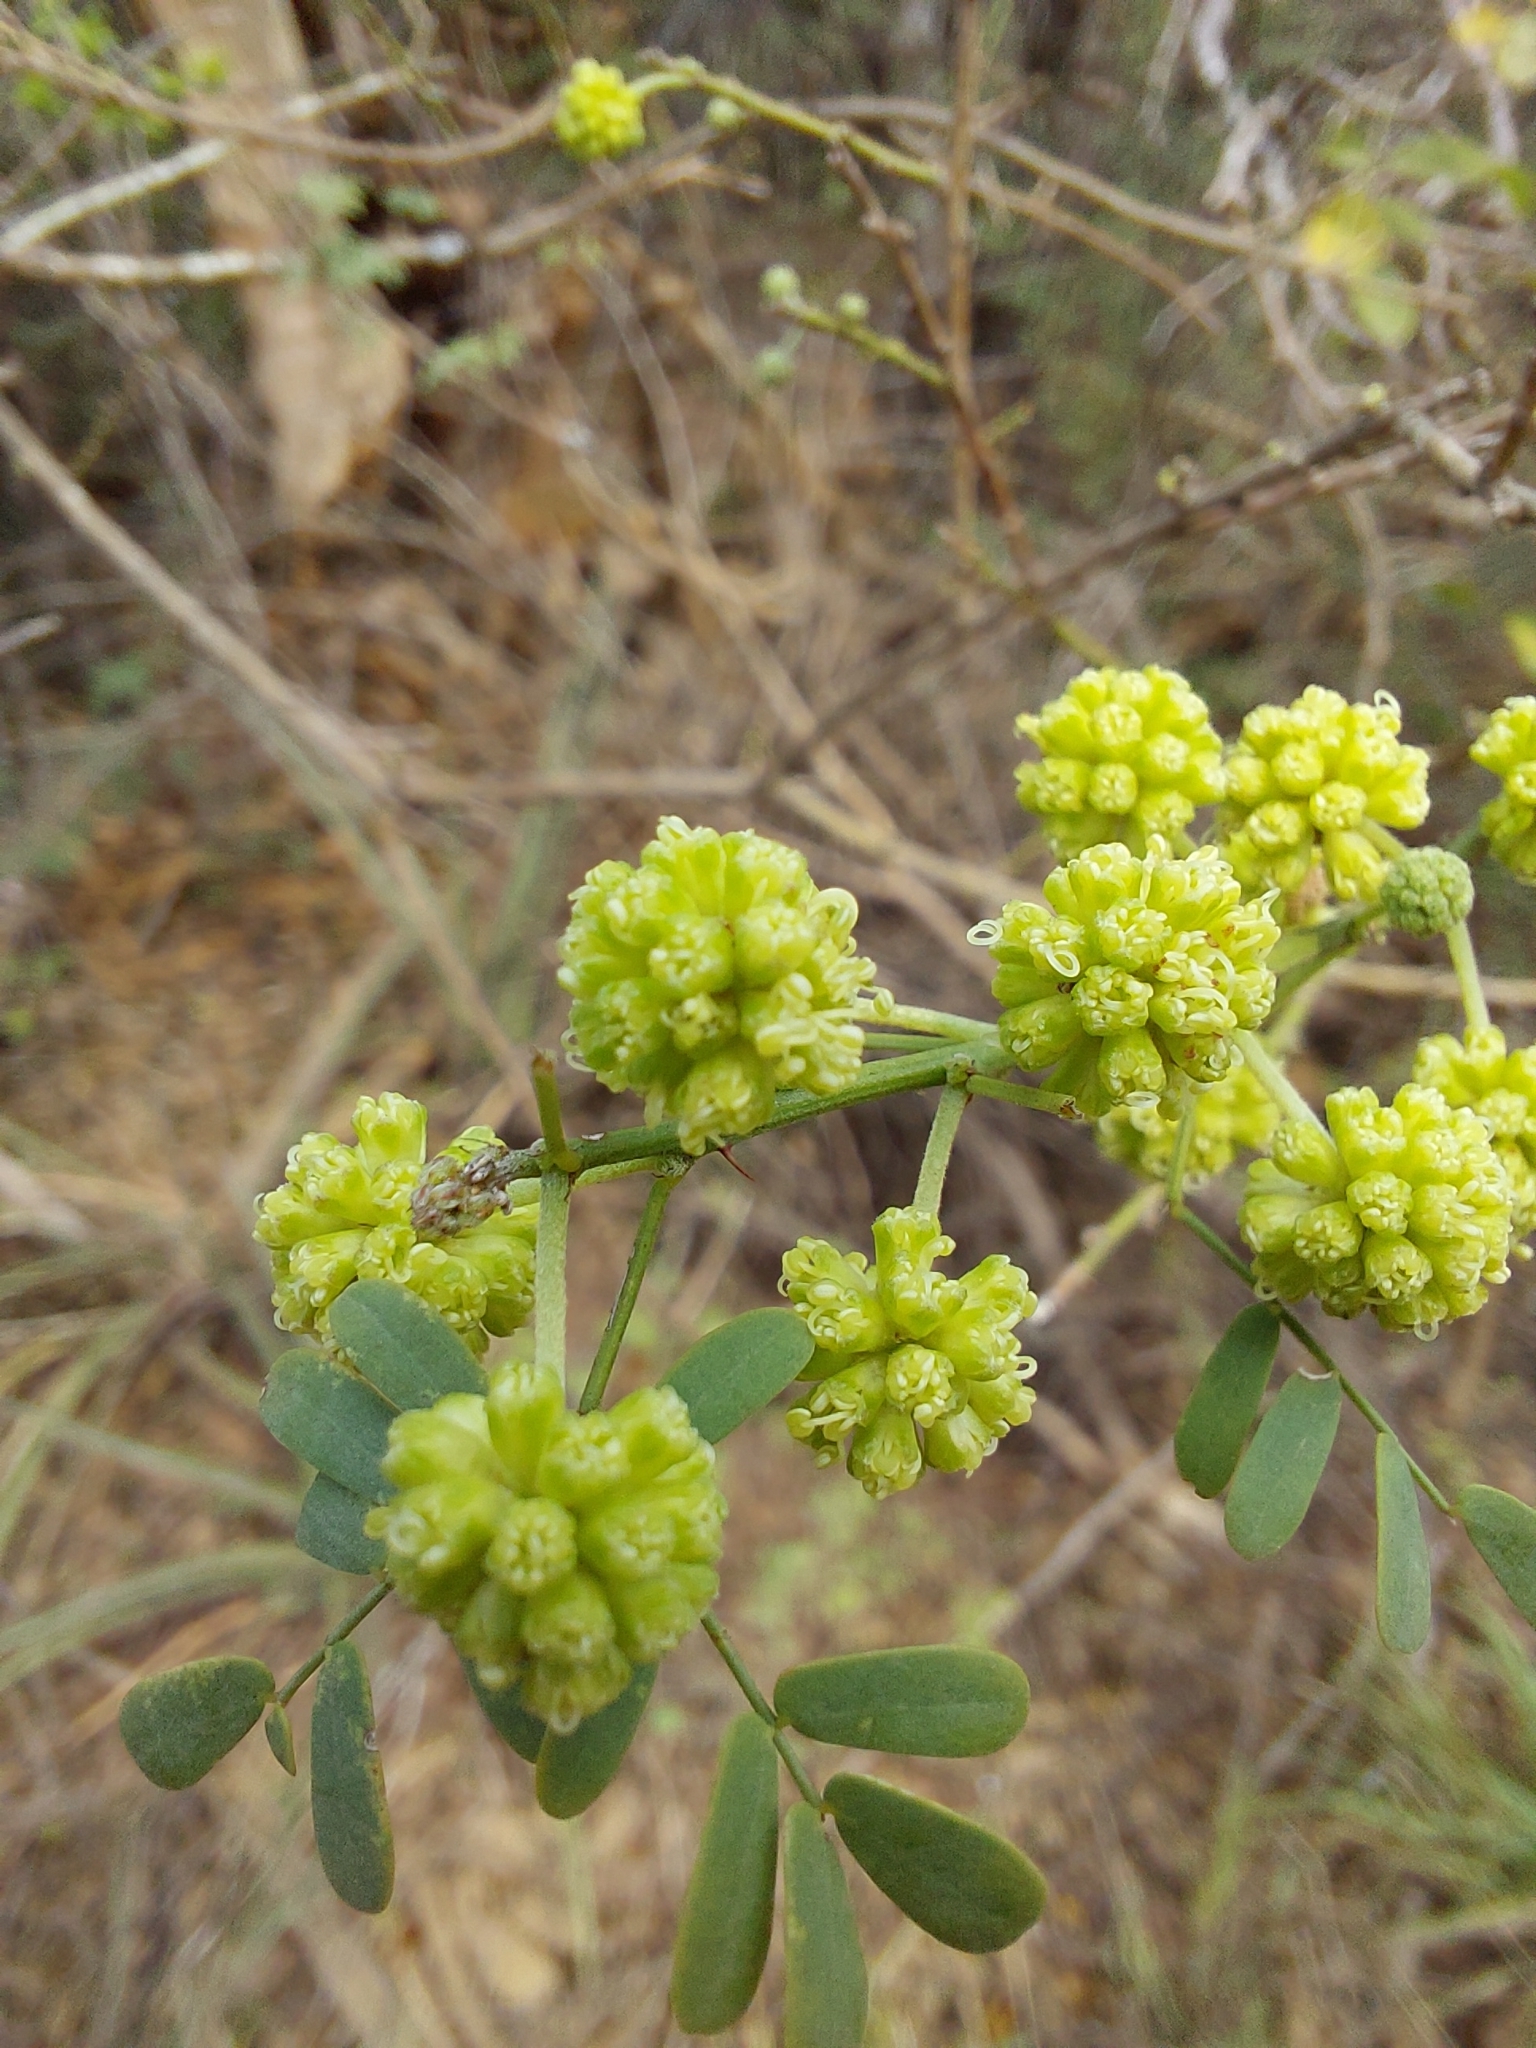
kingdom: Plantae
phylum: Tracheophyta
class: Magnoliopsida
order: Fabales
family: Fabaceae
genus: Mimosa
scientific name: Mimosa detinens
